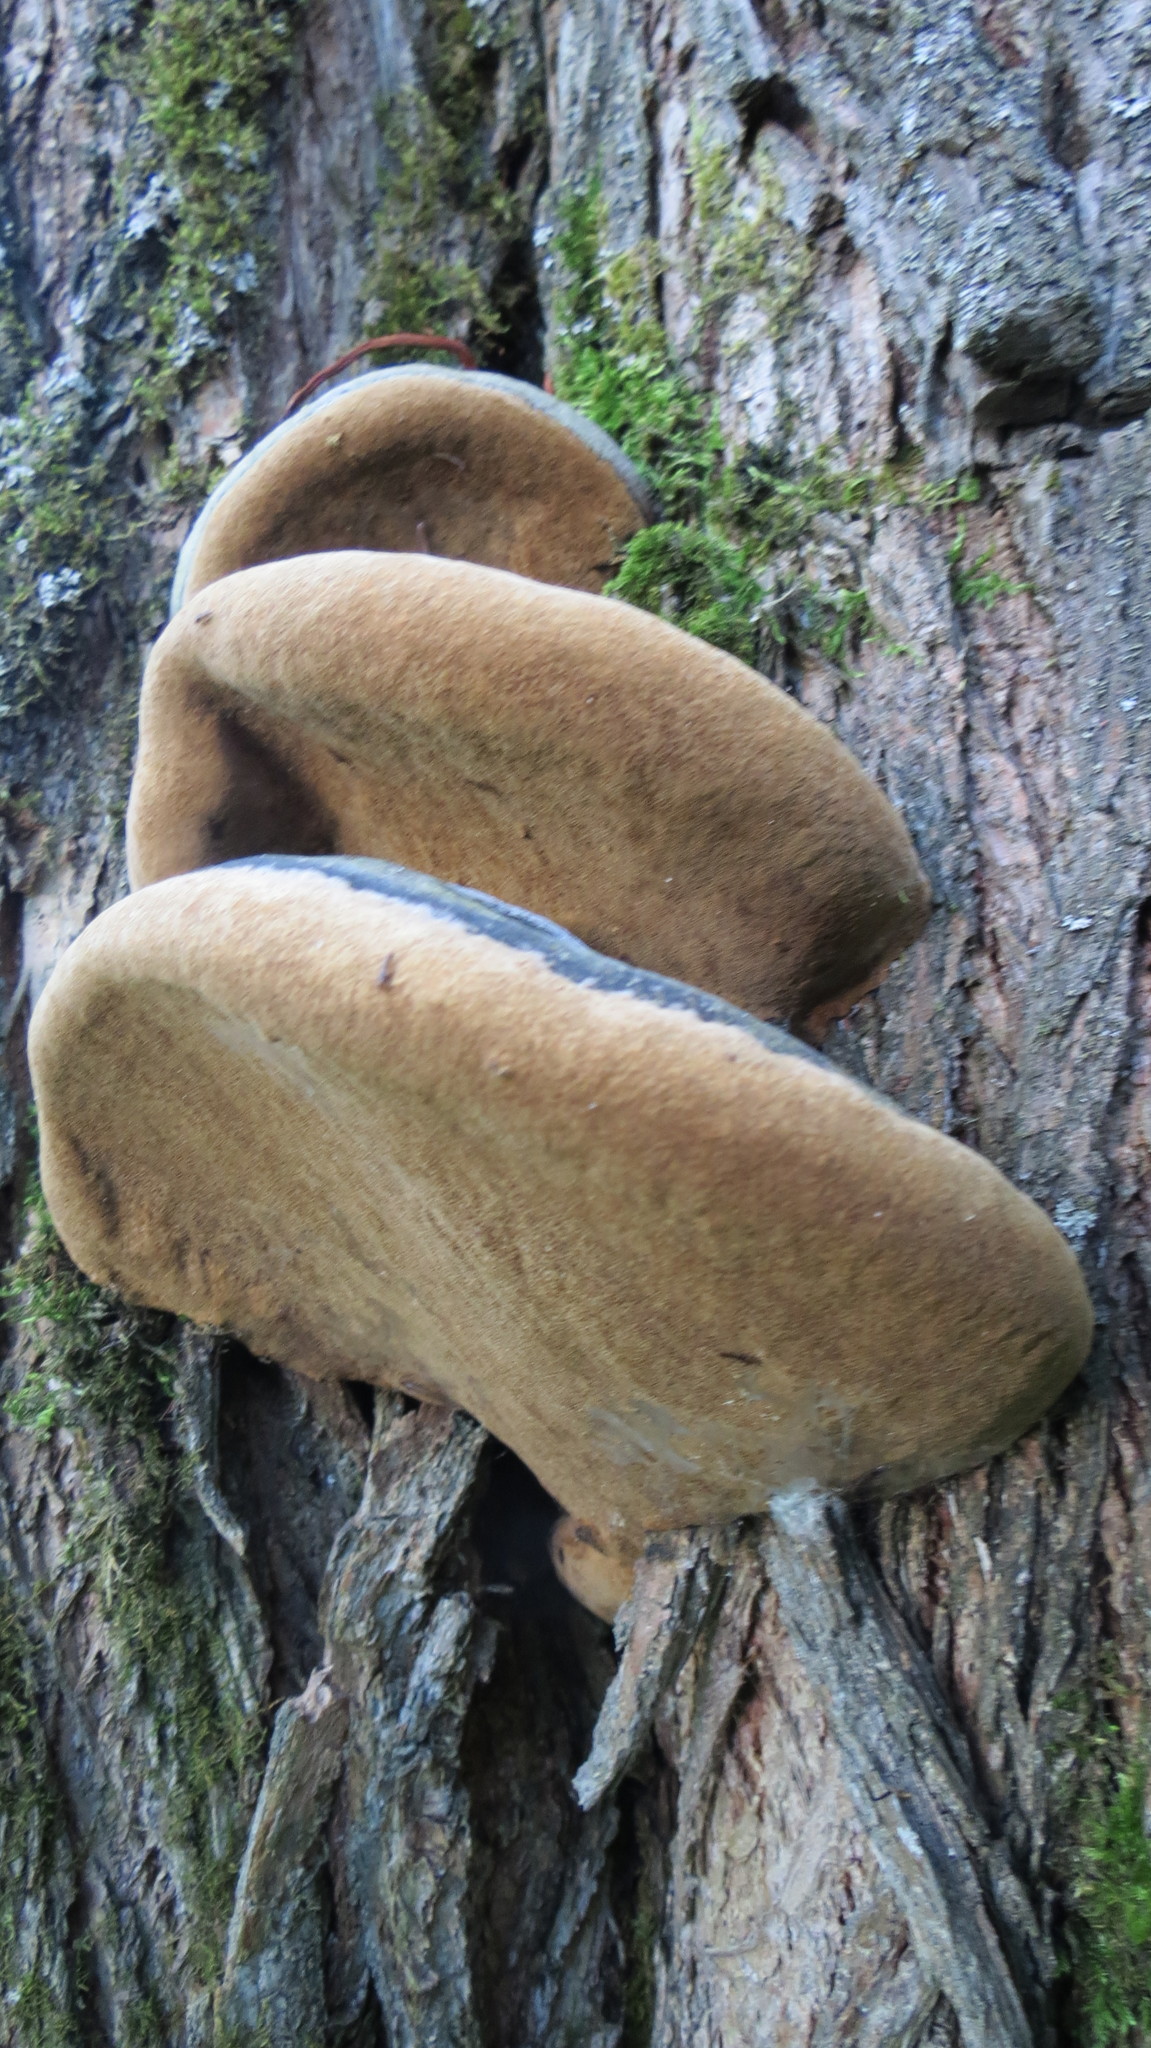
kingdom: Fungi
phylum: Basidiomycota
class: Agaricomycetes
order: Hymenochaetales
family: Hymenochaetaceae
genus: Phellinus
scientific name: Phellinus igniarius
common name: Willow bracket
